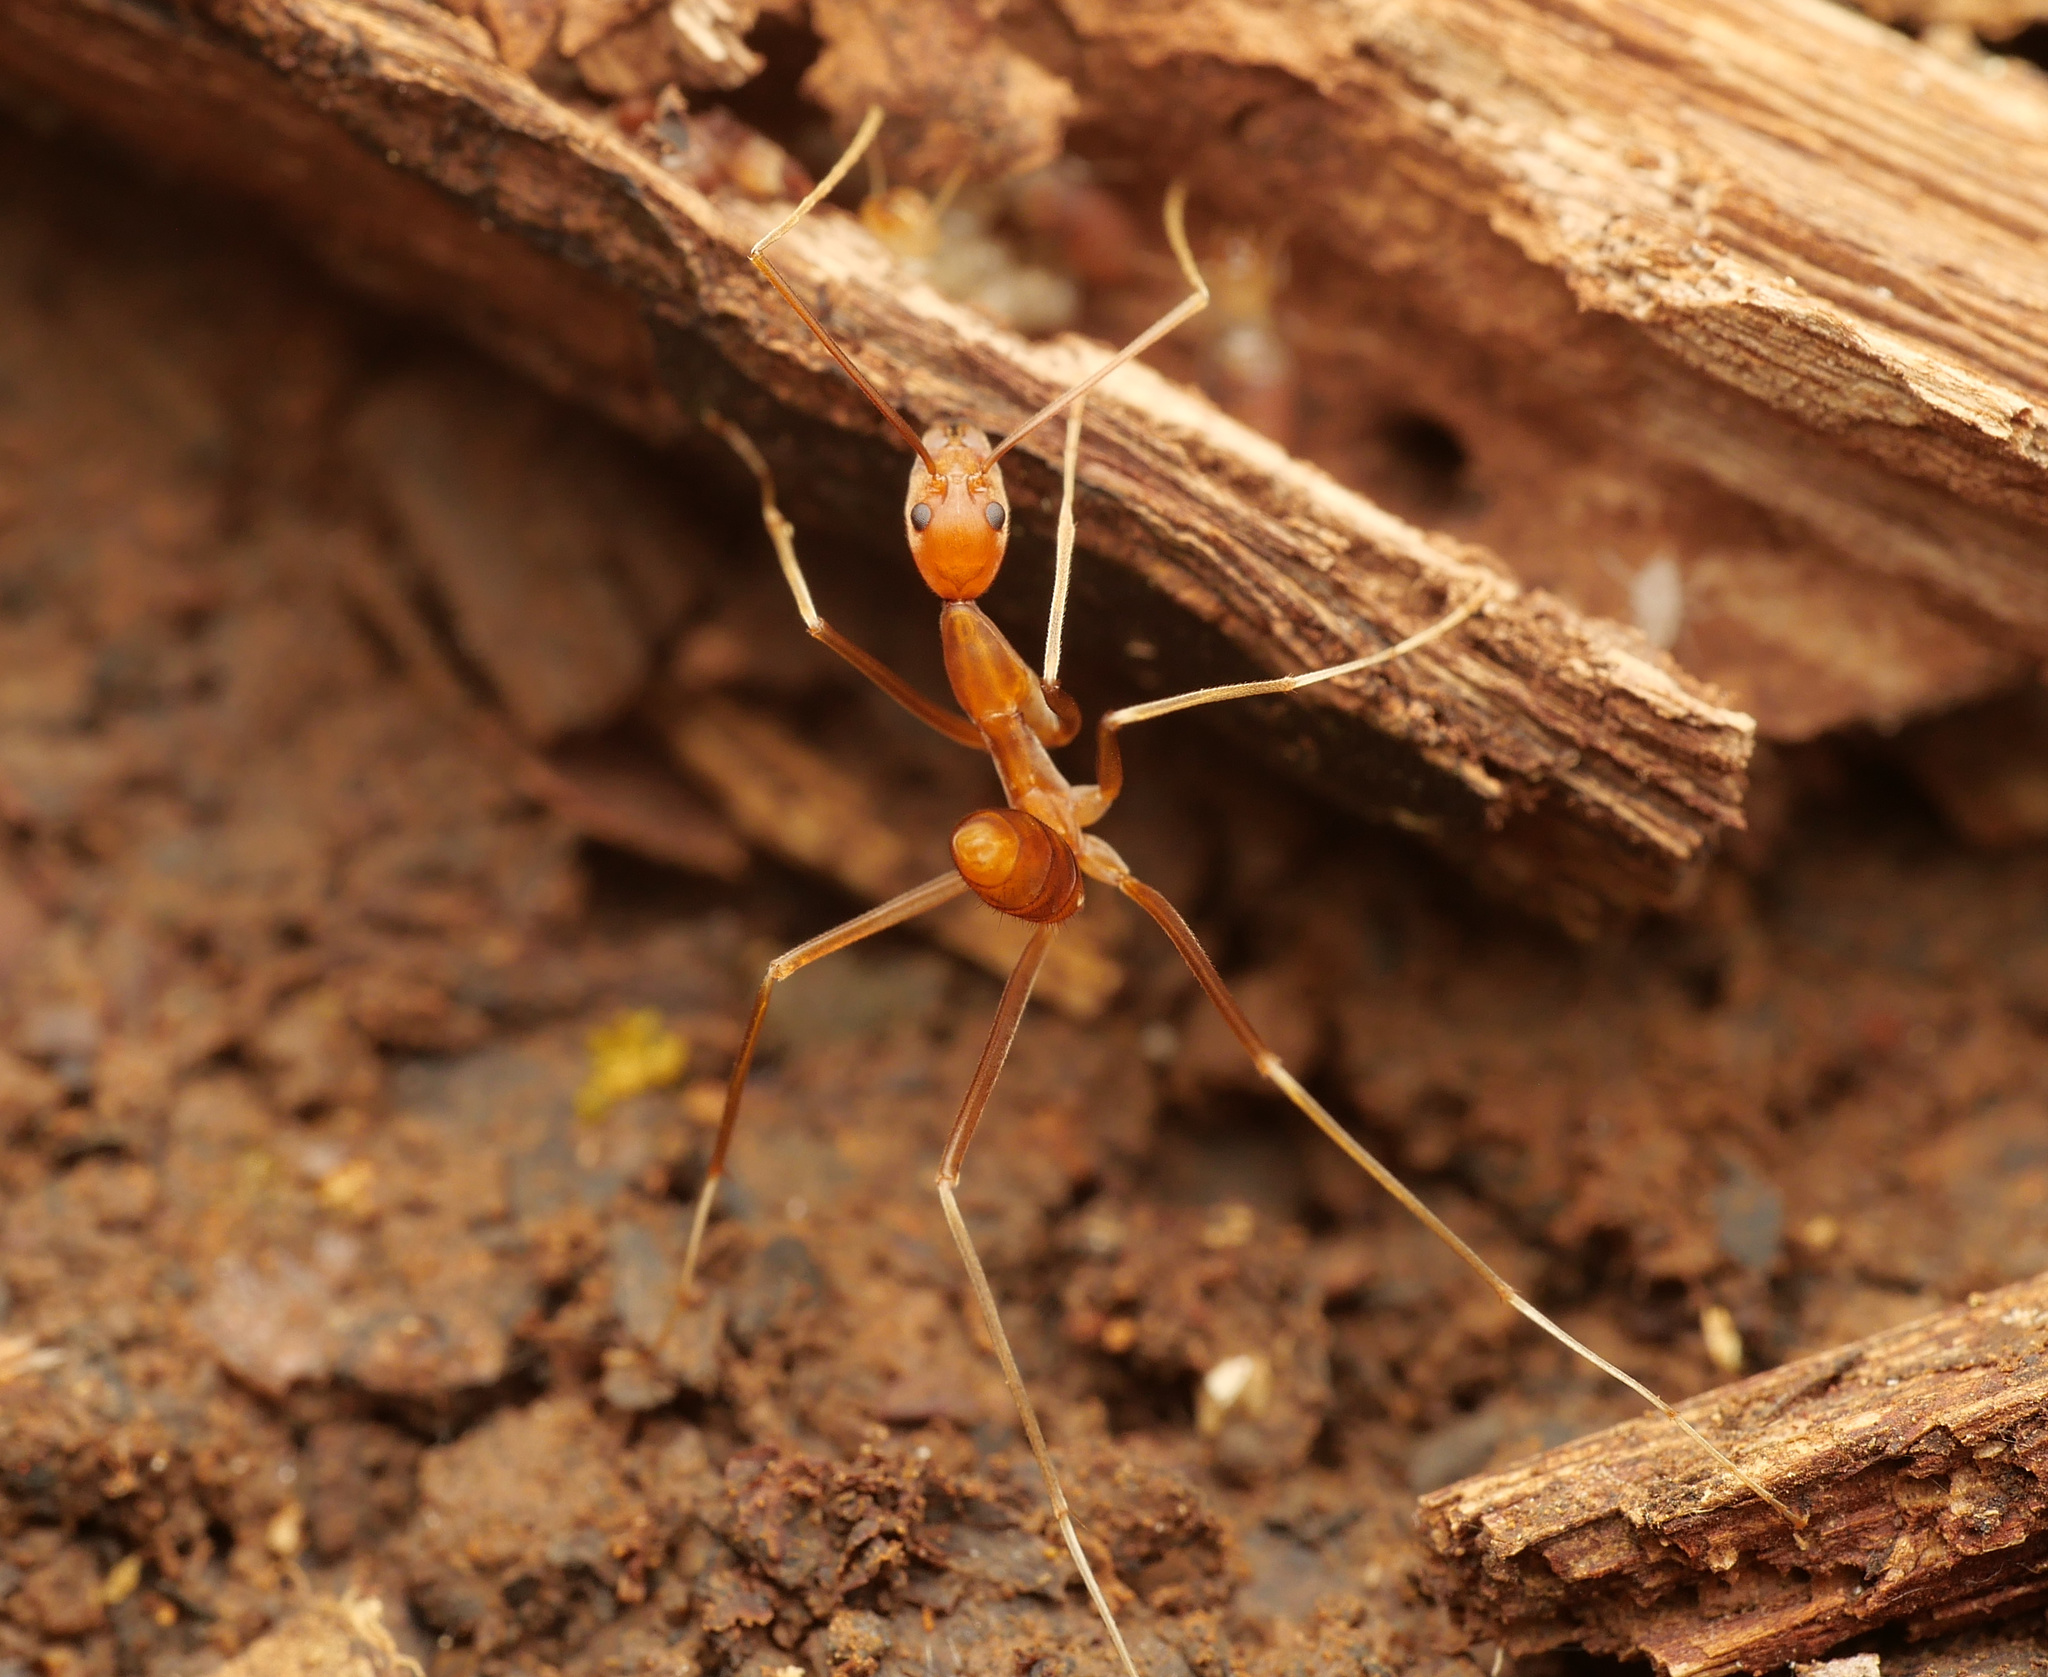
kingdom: Animalia
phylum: Arthropoda
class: Insecta
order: Hymenoptera
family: Formicidae
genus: Leptomyrmex
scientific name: Leptomyrmex puberulus
